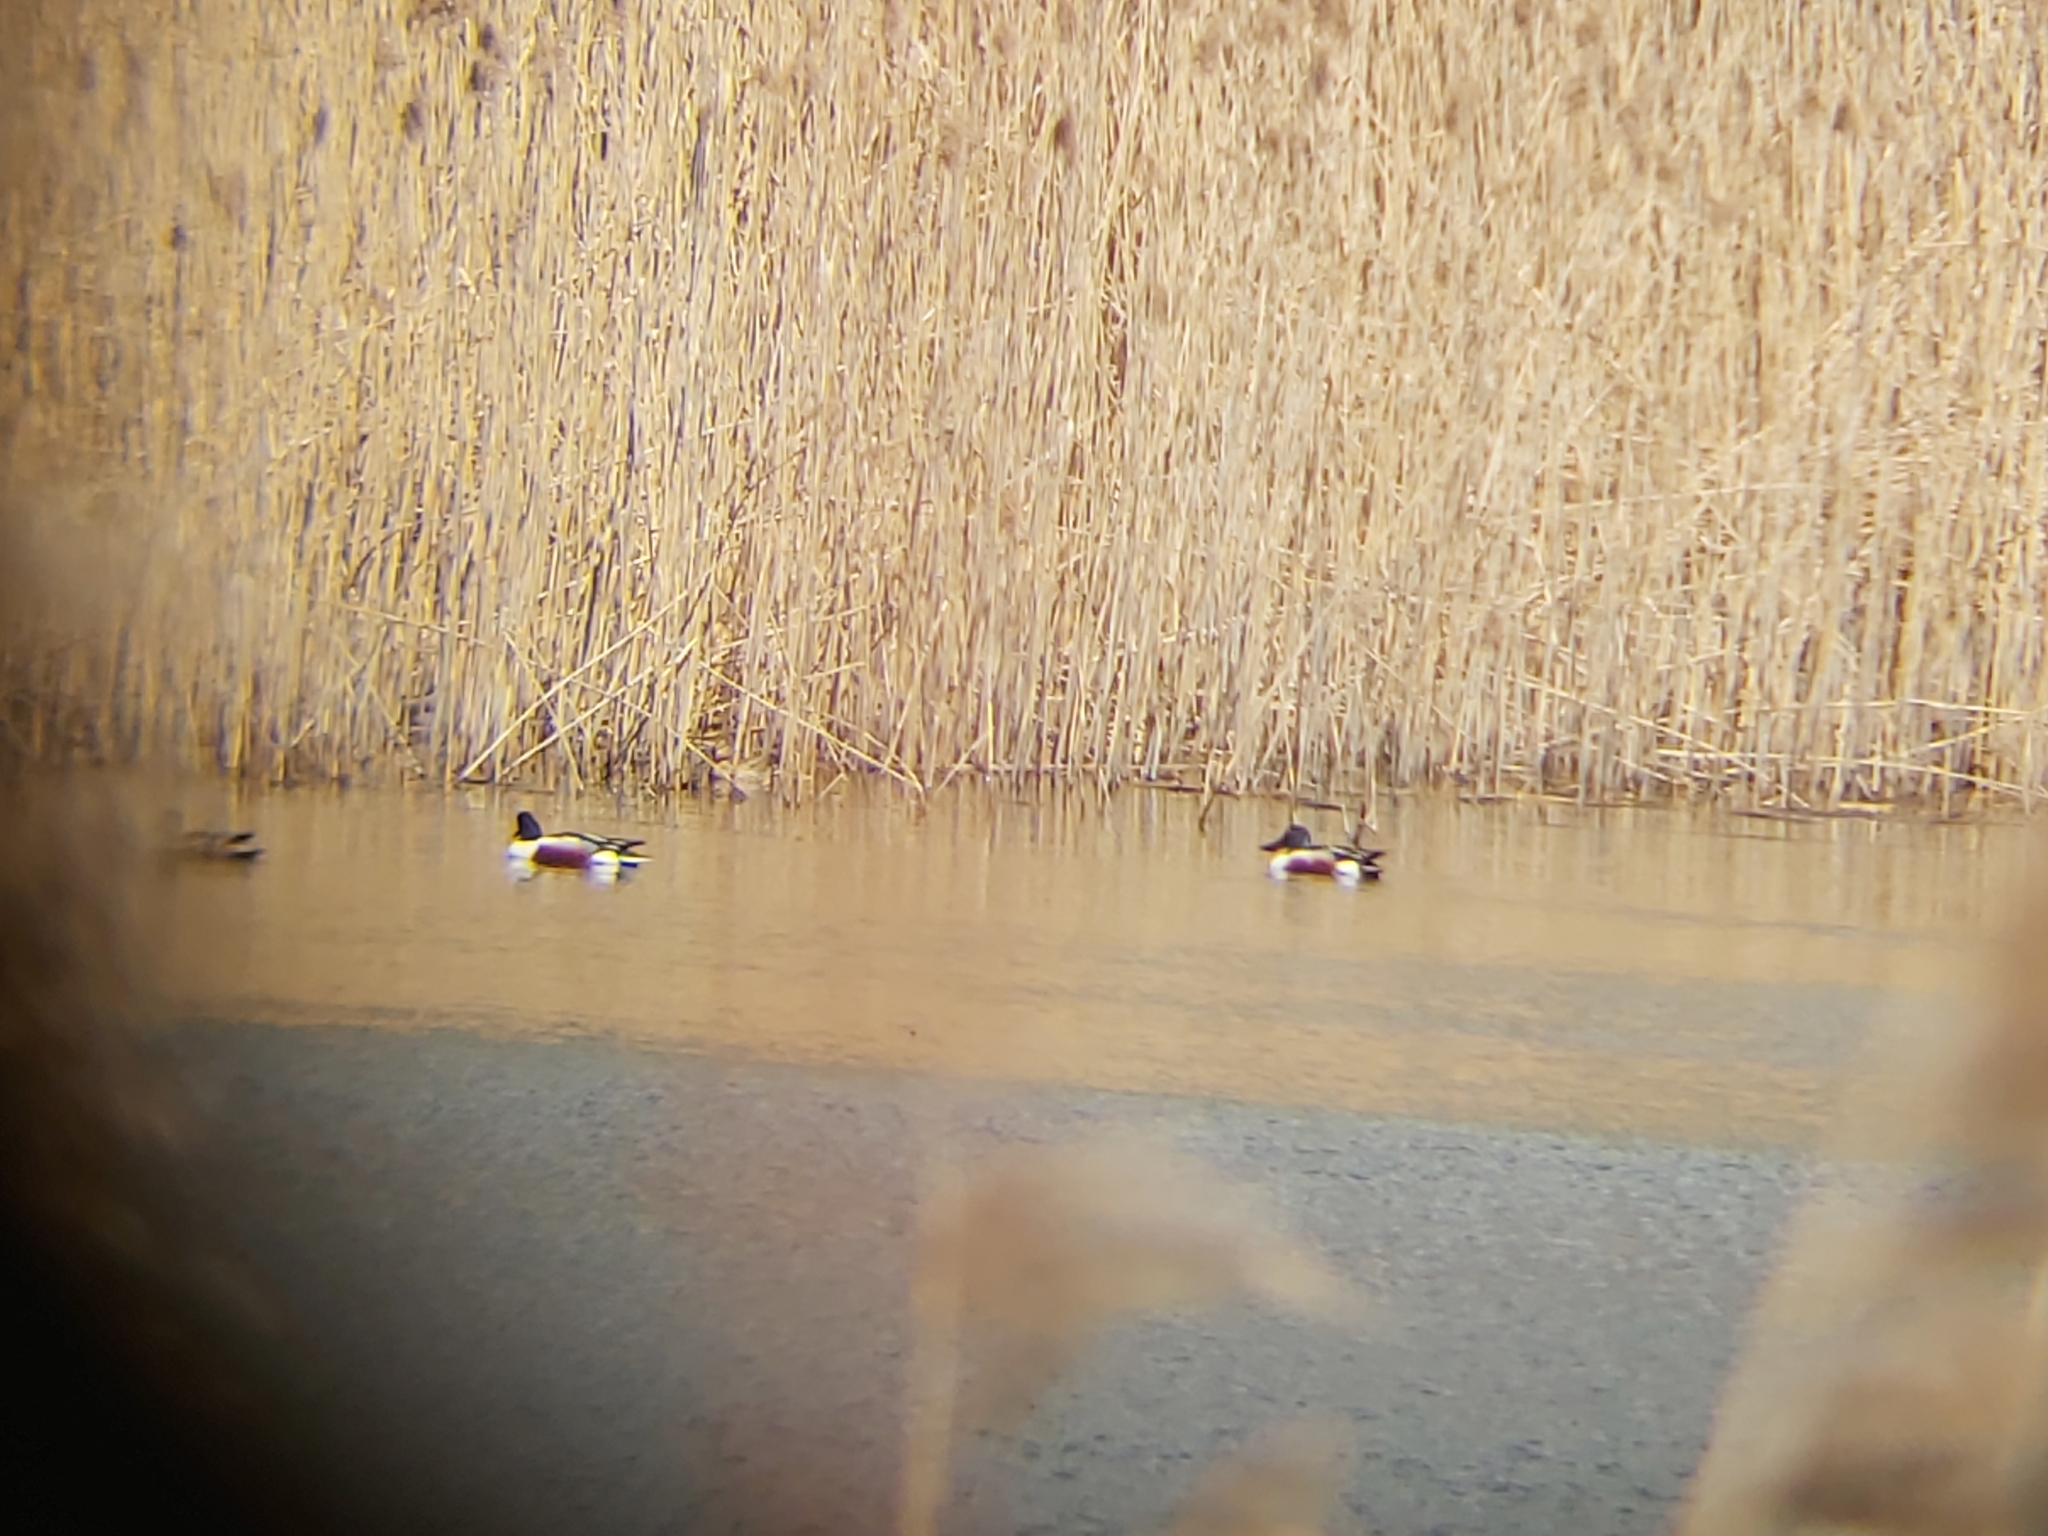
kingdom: Animalia
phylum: Chordata
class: Aves
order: Anseriformes
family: Anatidae
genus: Spatula
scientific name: Spatula clypeata
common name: Northern shoveler
